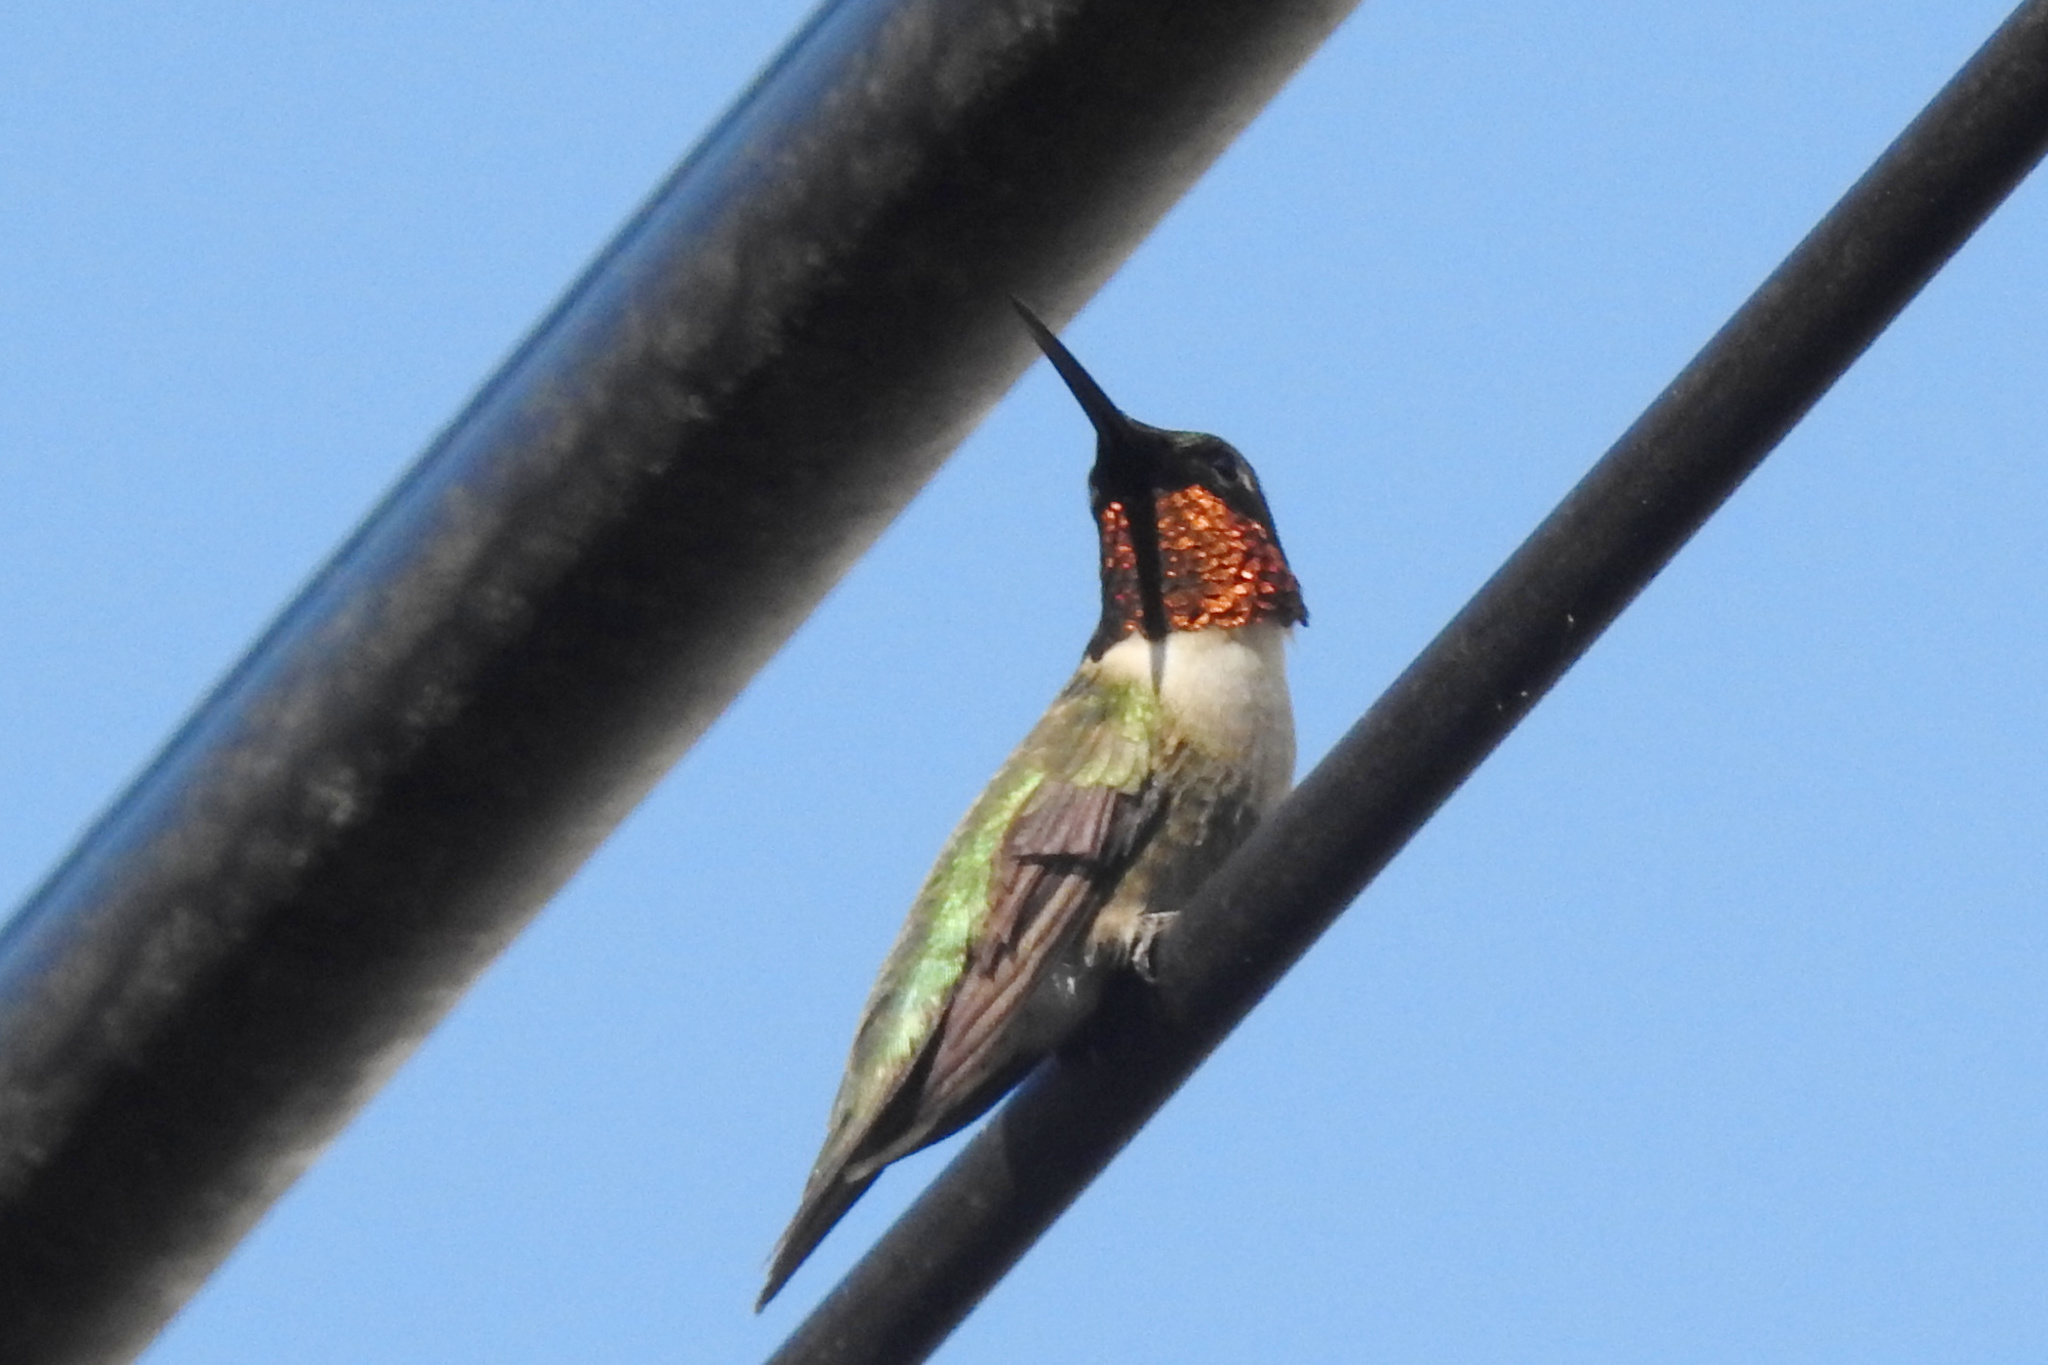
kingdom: Animalia
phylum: Chordata
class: Aves
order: Apodiformes
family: Trochilidae
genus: Archilochus
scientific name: Archilochus colubris
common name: Ruby-throated hummingbird
